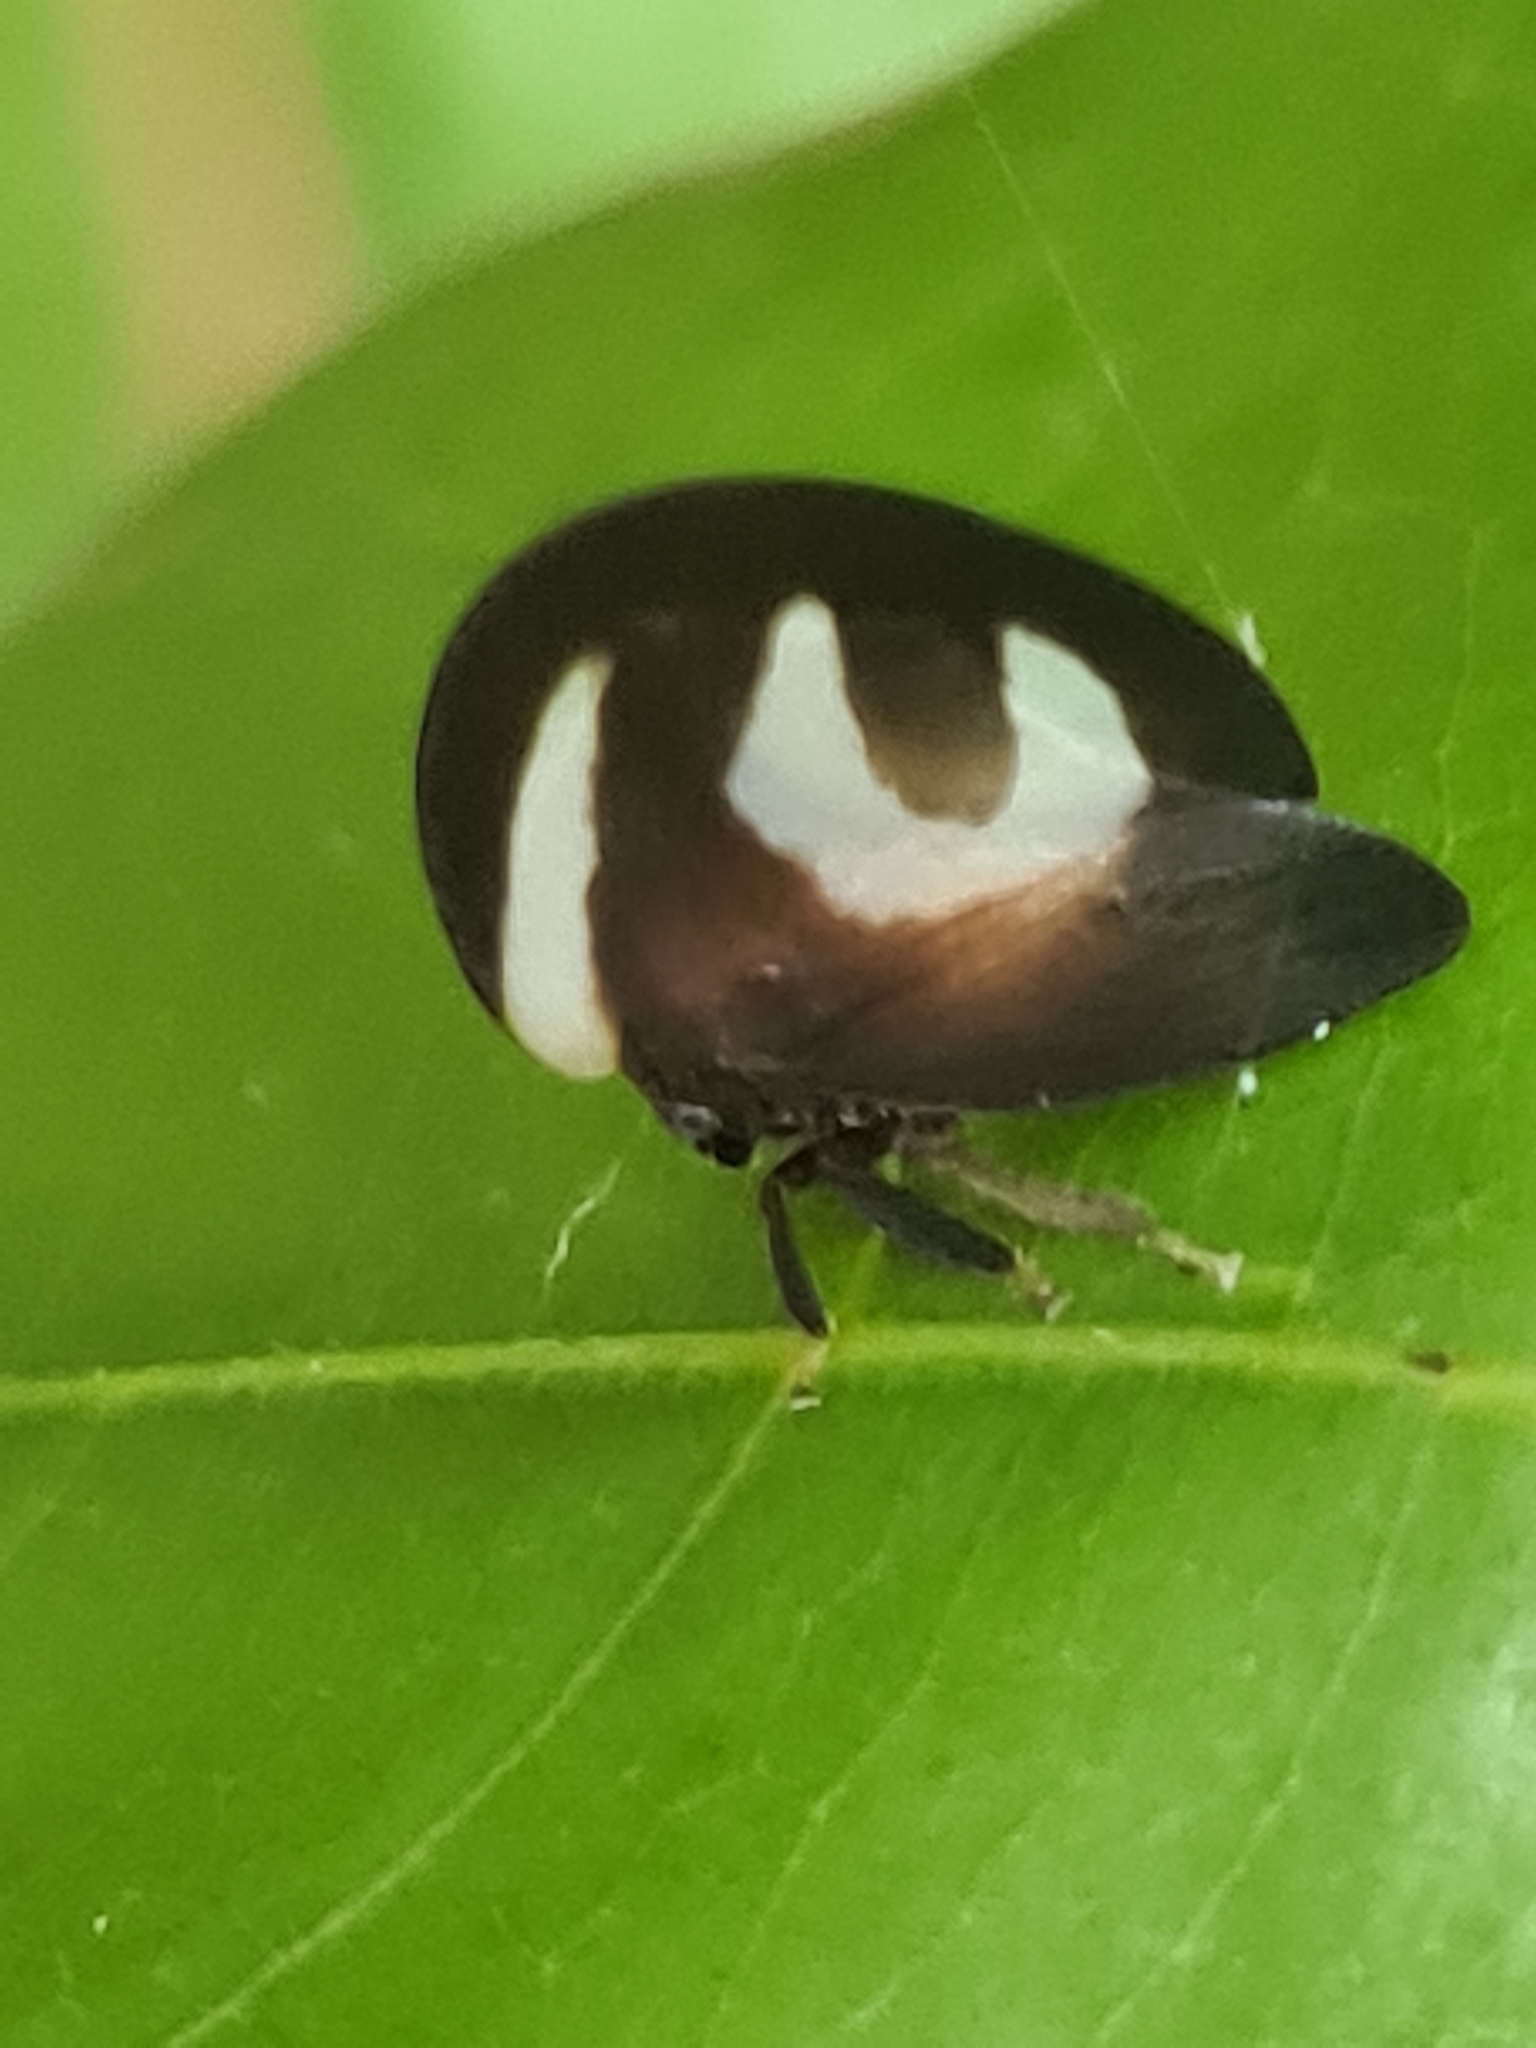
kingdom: Animalia
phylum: Arthropoda
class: Insecta
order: Hemiptera
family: Membracidae
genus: Membracis
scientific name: Membracis foliatafasciata
